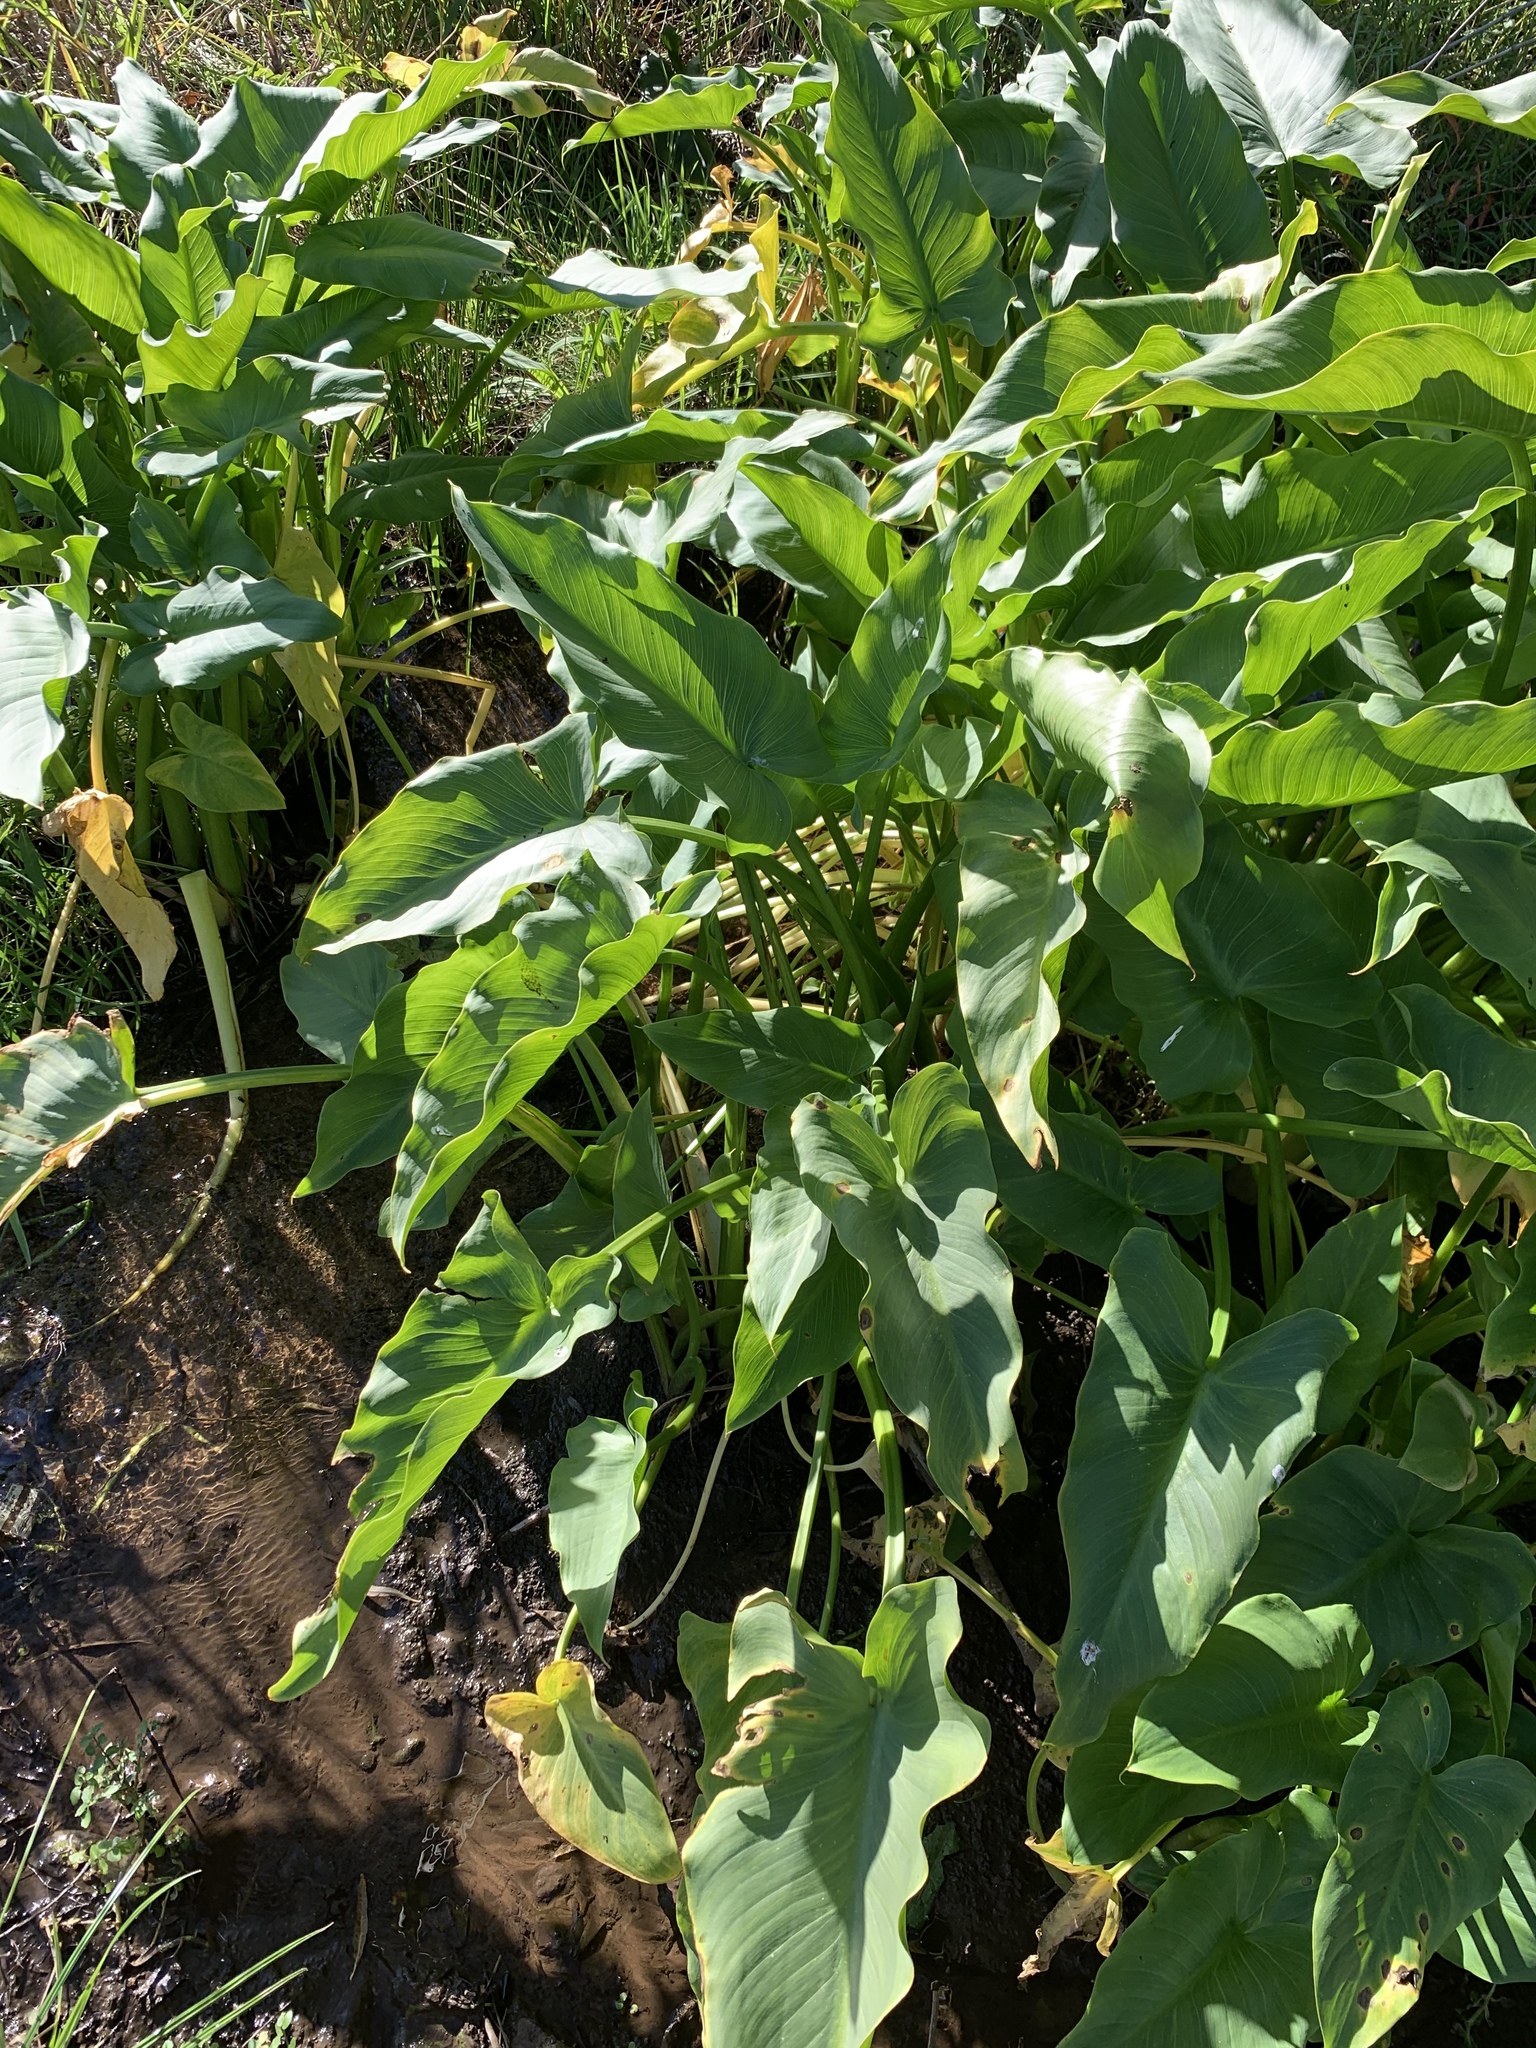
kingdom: Plantae
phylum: Tracheophyta
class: Liliopsida
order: Alismatales
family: Araceae
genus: Zantedeschia
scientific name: Zantedeschia aethiopica
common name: Altar-lily
